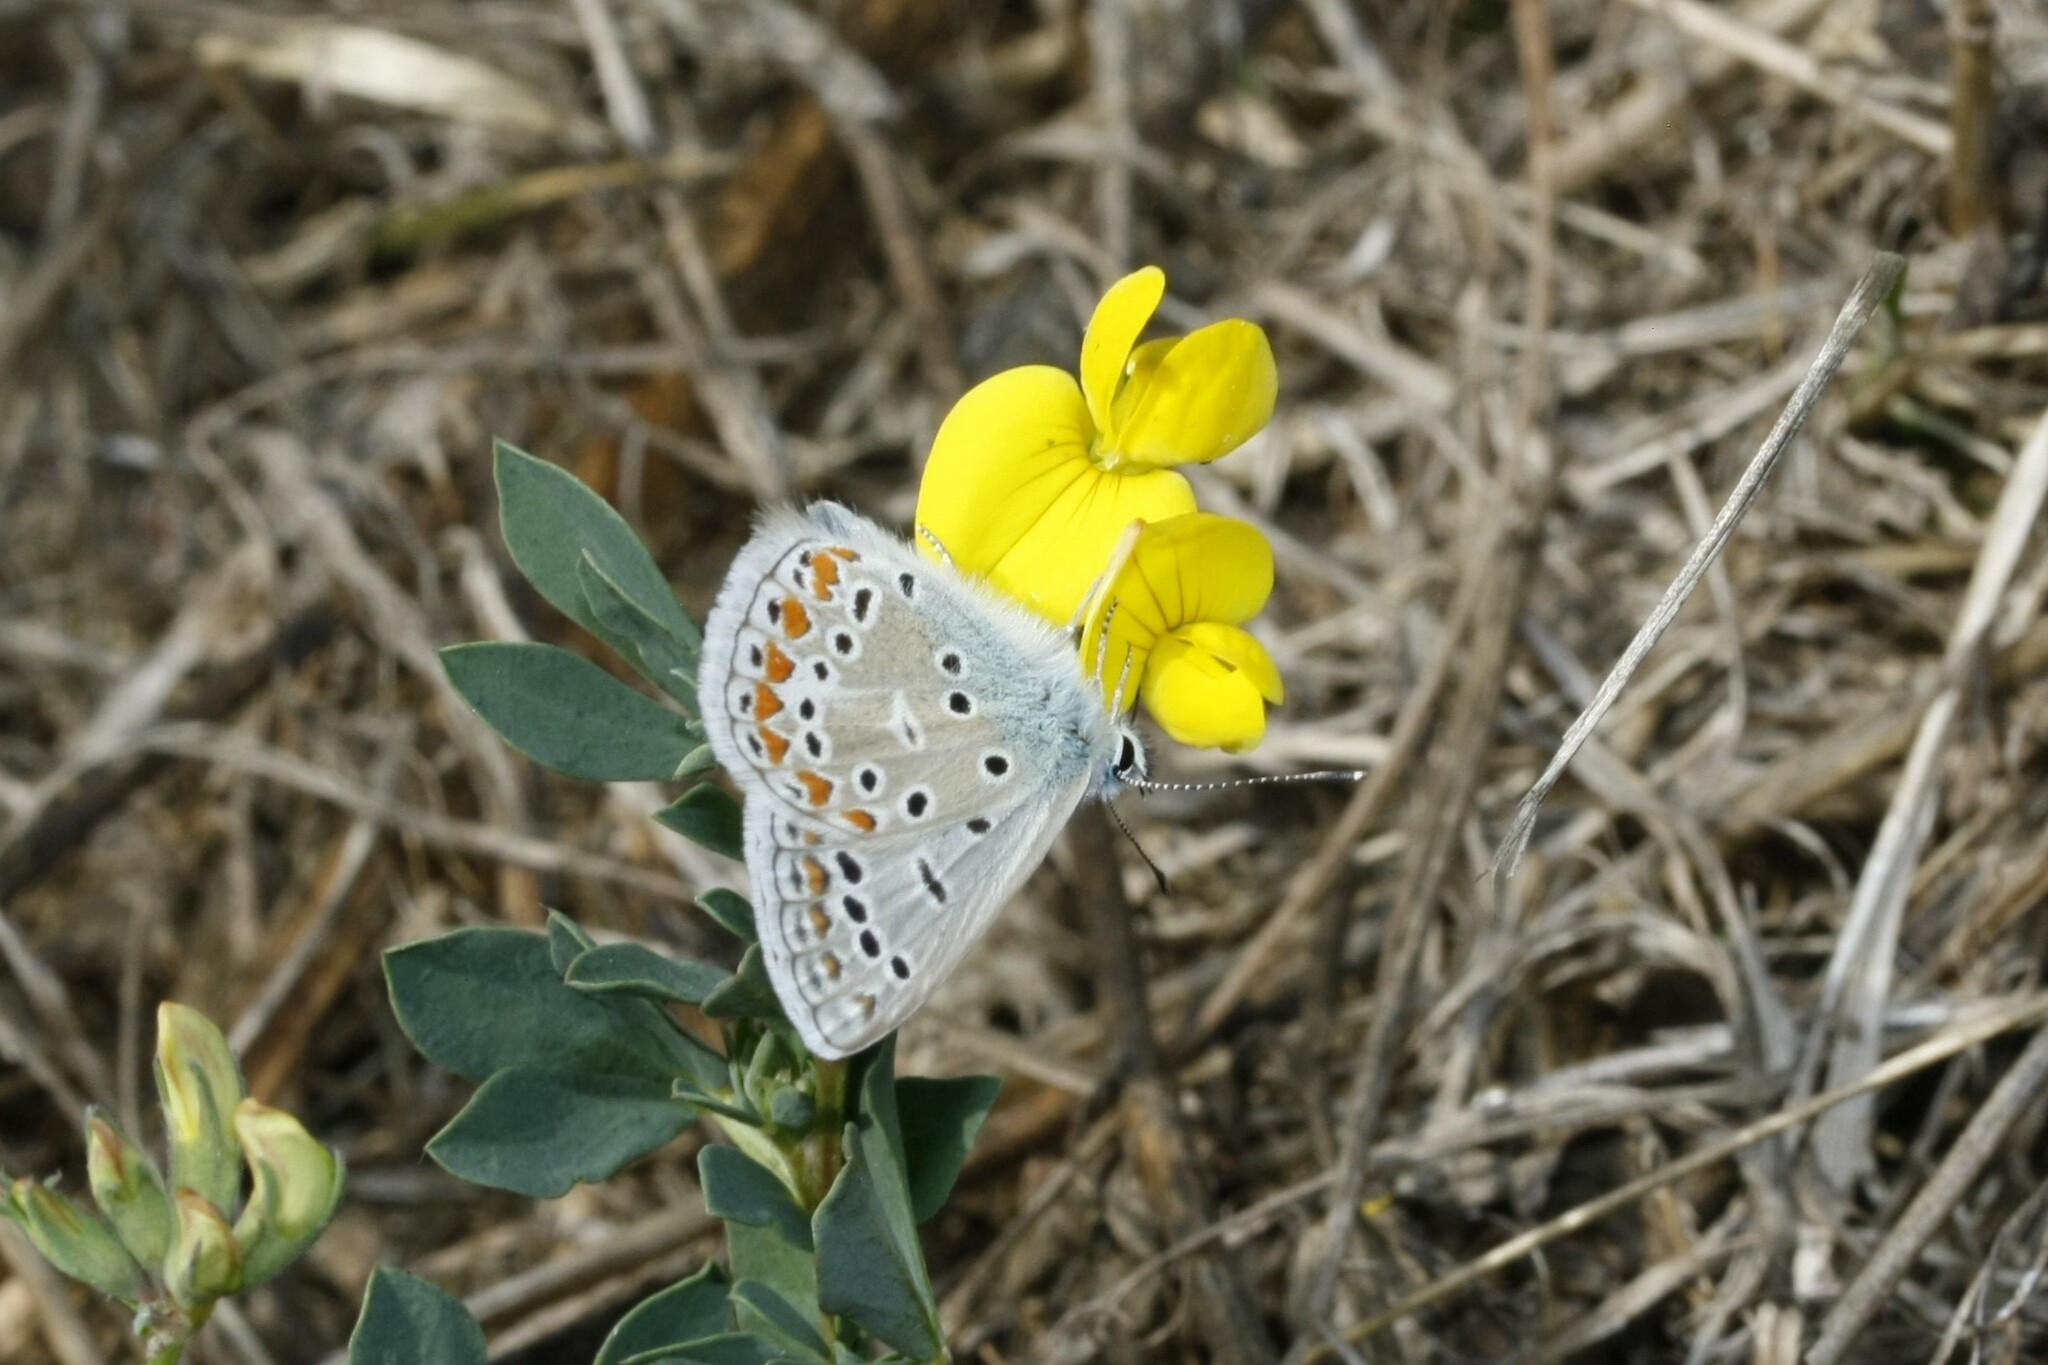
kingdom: Animalia
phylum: Arthropoda
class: Insecta
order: Lepidoptera
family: Lycaenidae
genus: Polyommatus
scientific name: Polyommatus icarus
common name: Common blue
